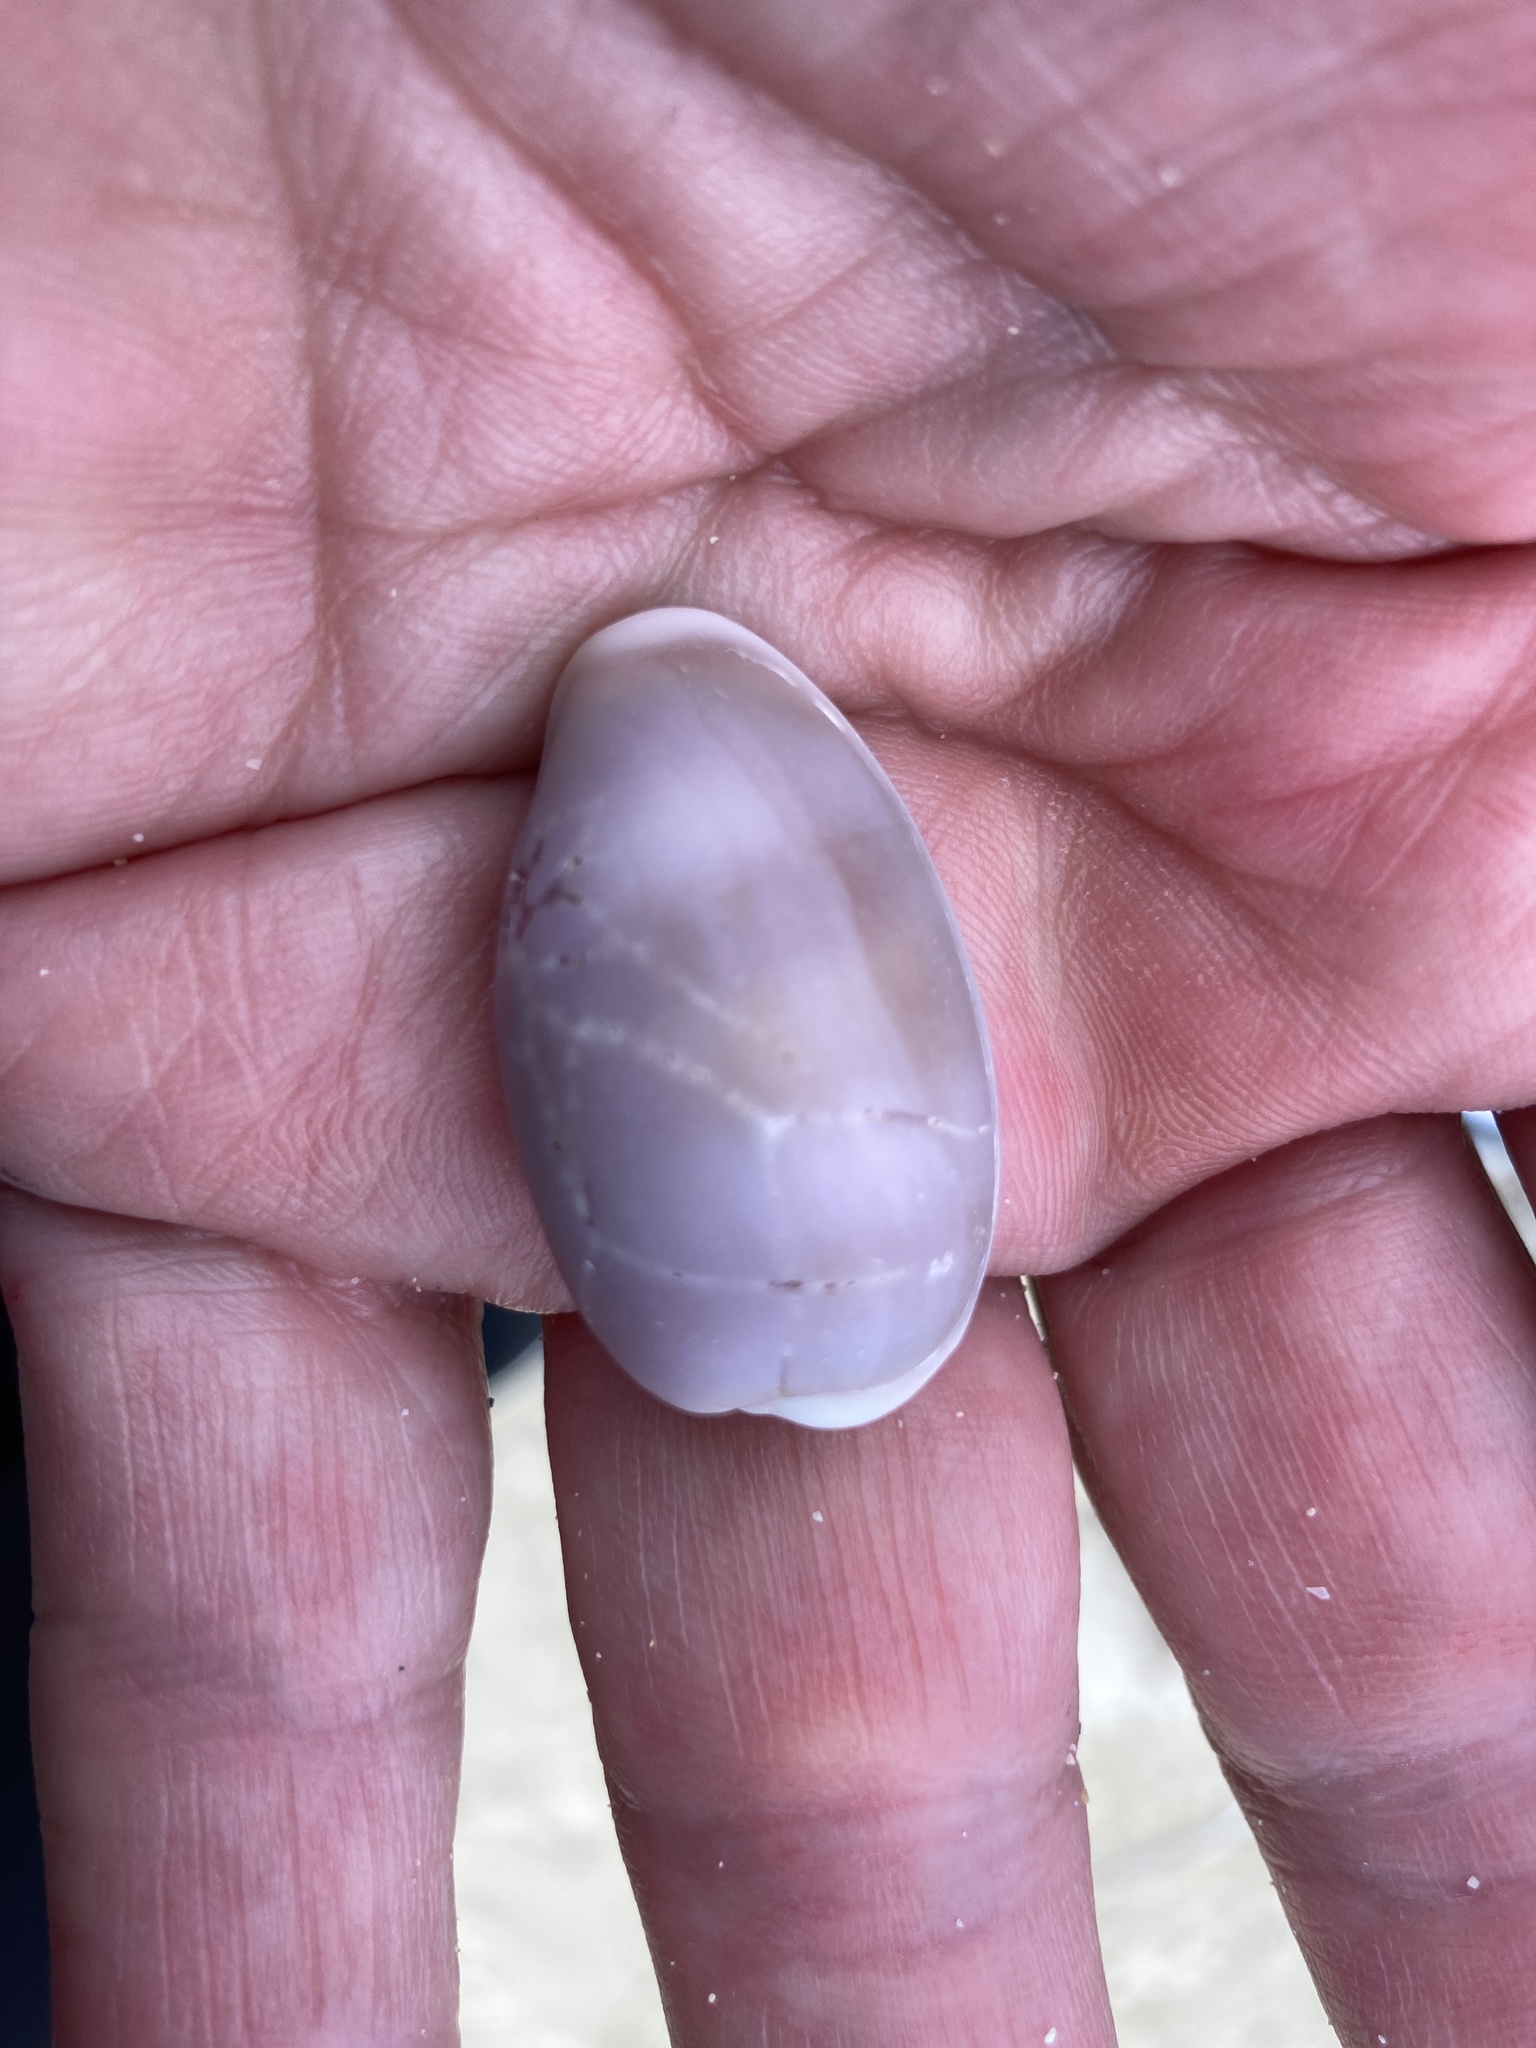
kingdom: Animalia
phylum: Mollusca
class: Gastropoda
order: Littorinimorpha
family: Cypraeidae
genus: Erronea
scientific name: Erronea errones
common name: Mistaken cowrie
